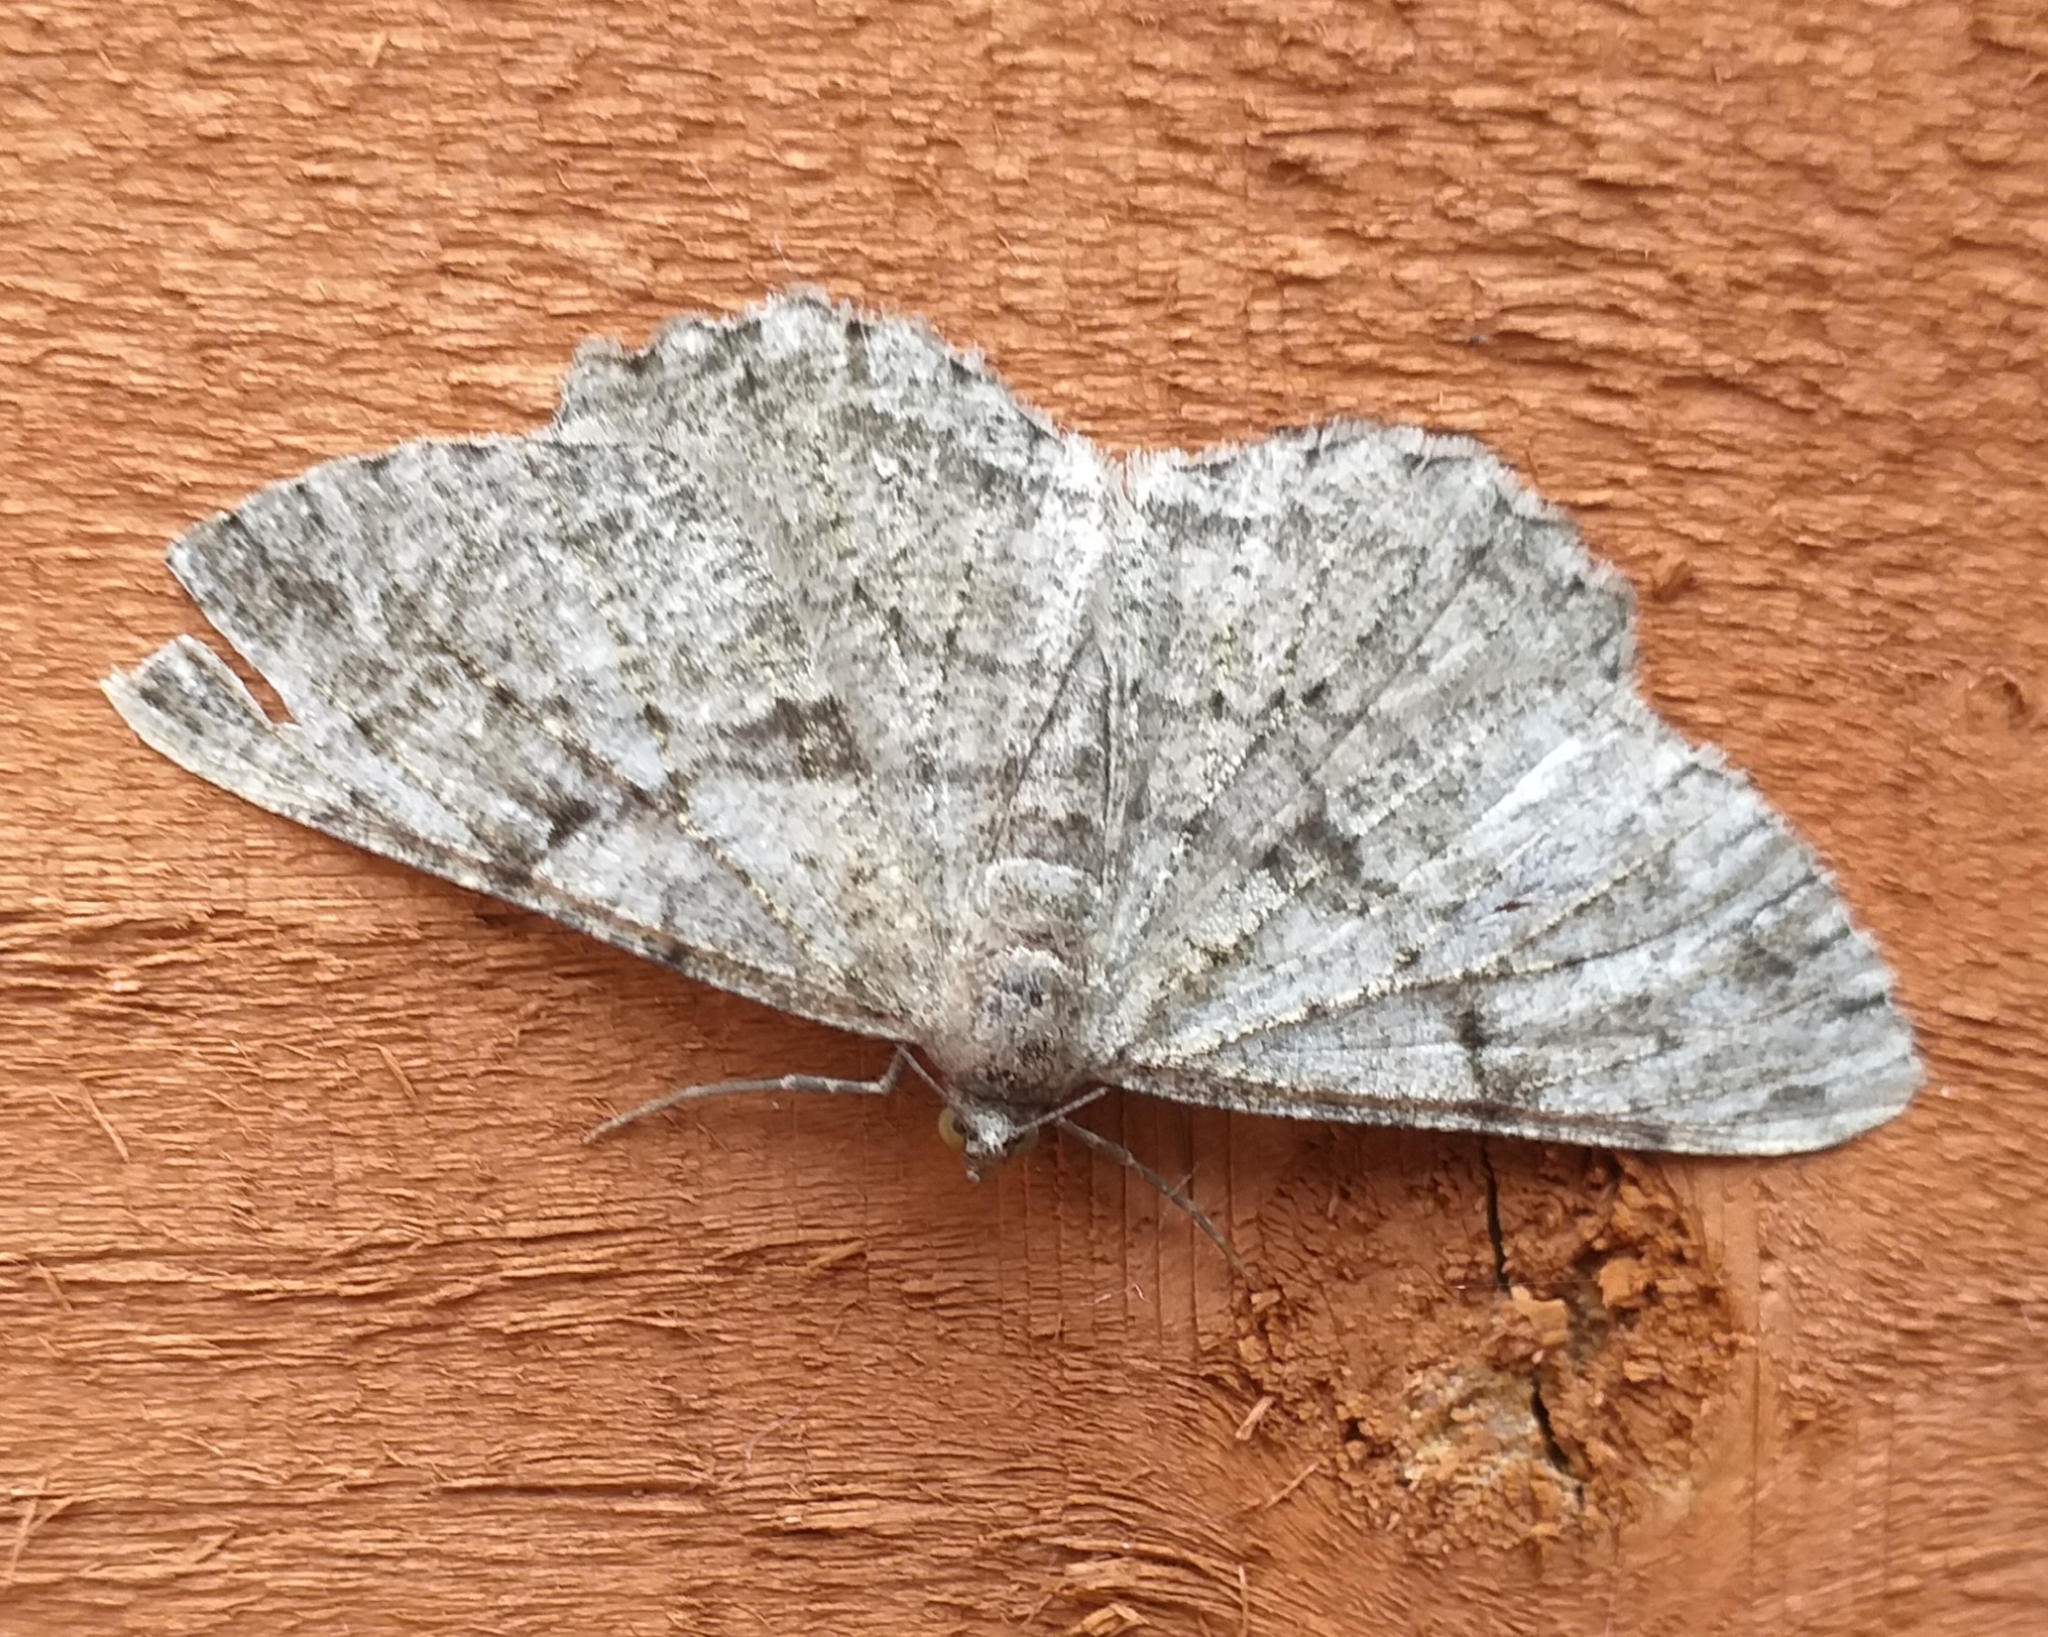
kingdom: Animalia
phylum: Arthropoda
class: Insecta
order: Lepidoptera
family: Geometridae
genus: Peribatodes
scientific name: Peribatodes rhomboidaria
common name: Willow beauty
